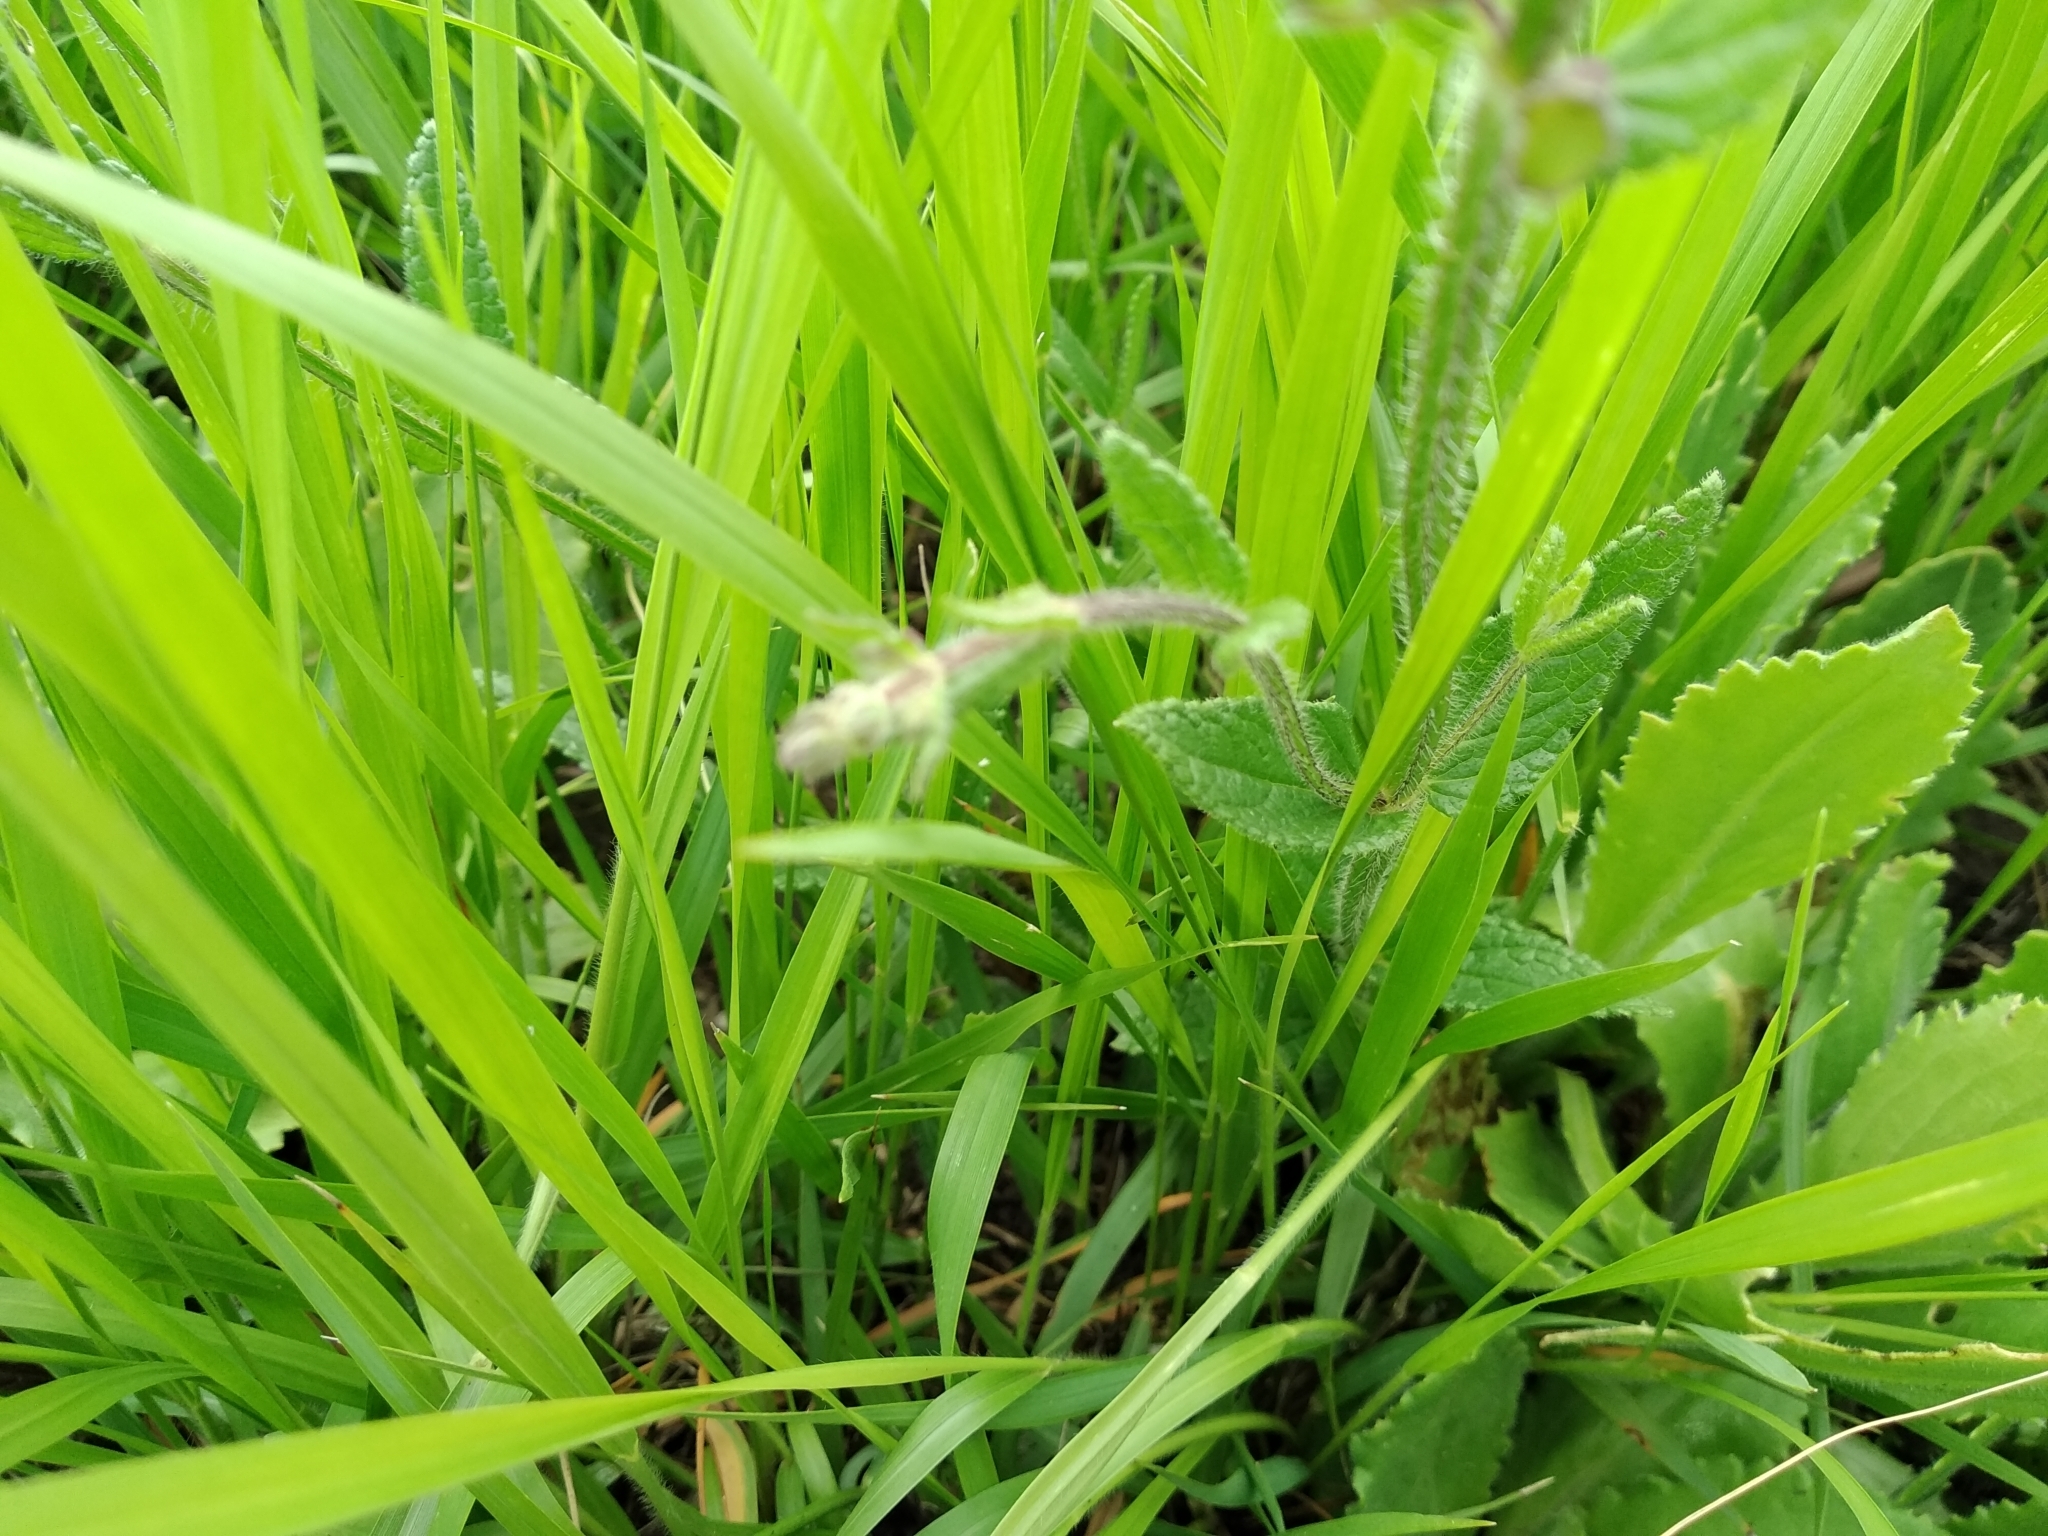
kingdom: Plantae
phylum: Tracheophyta
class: Magnoliopsida
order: Lamiales
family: Lamiaceae
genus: Stachys
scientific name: Stachys aethiopica
